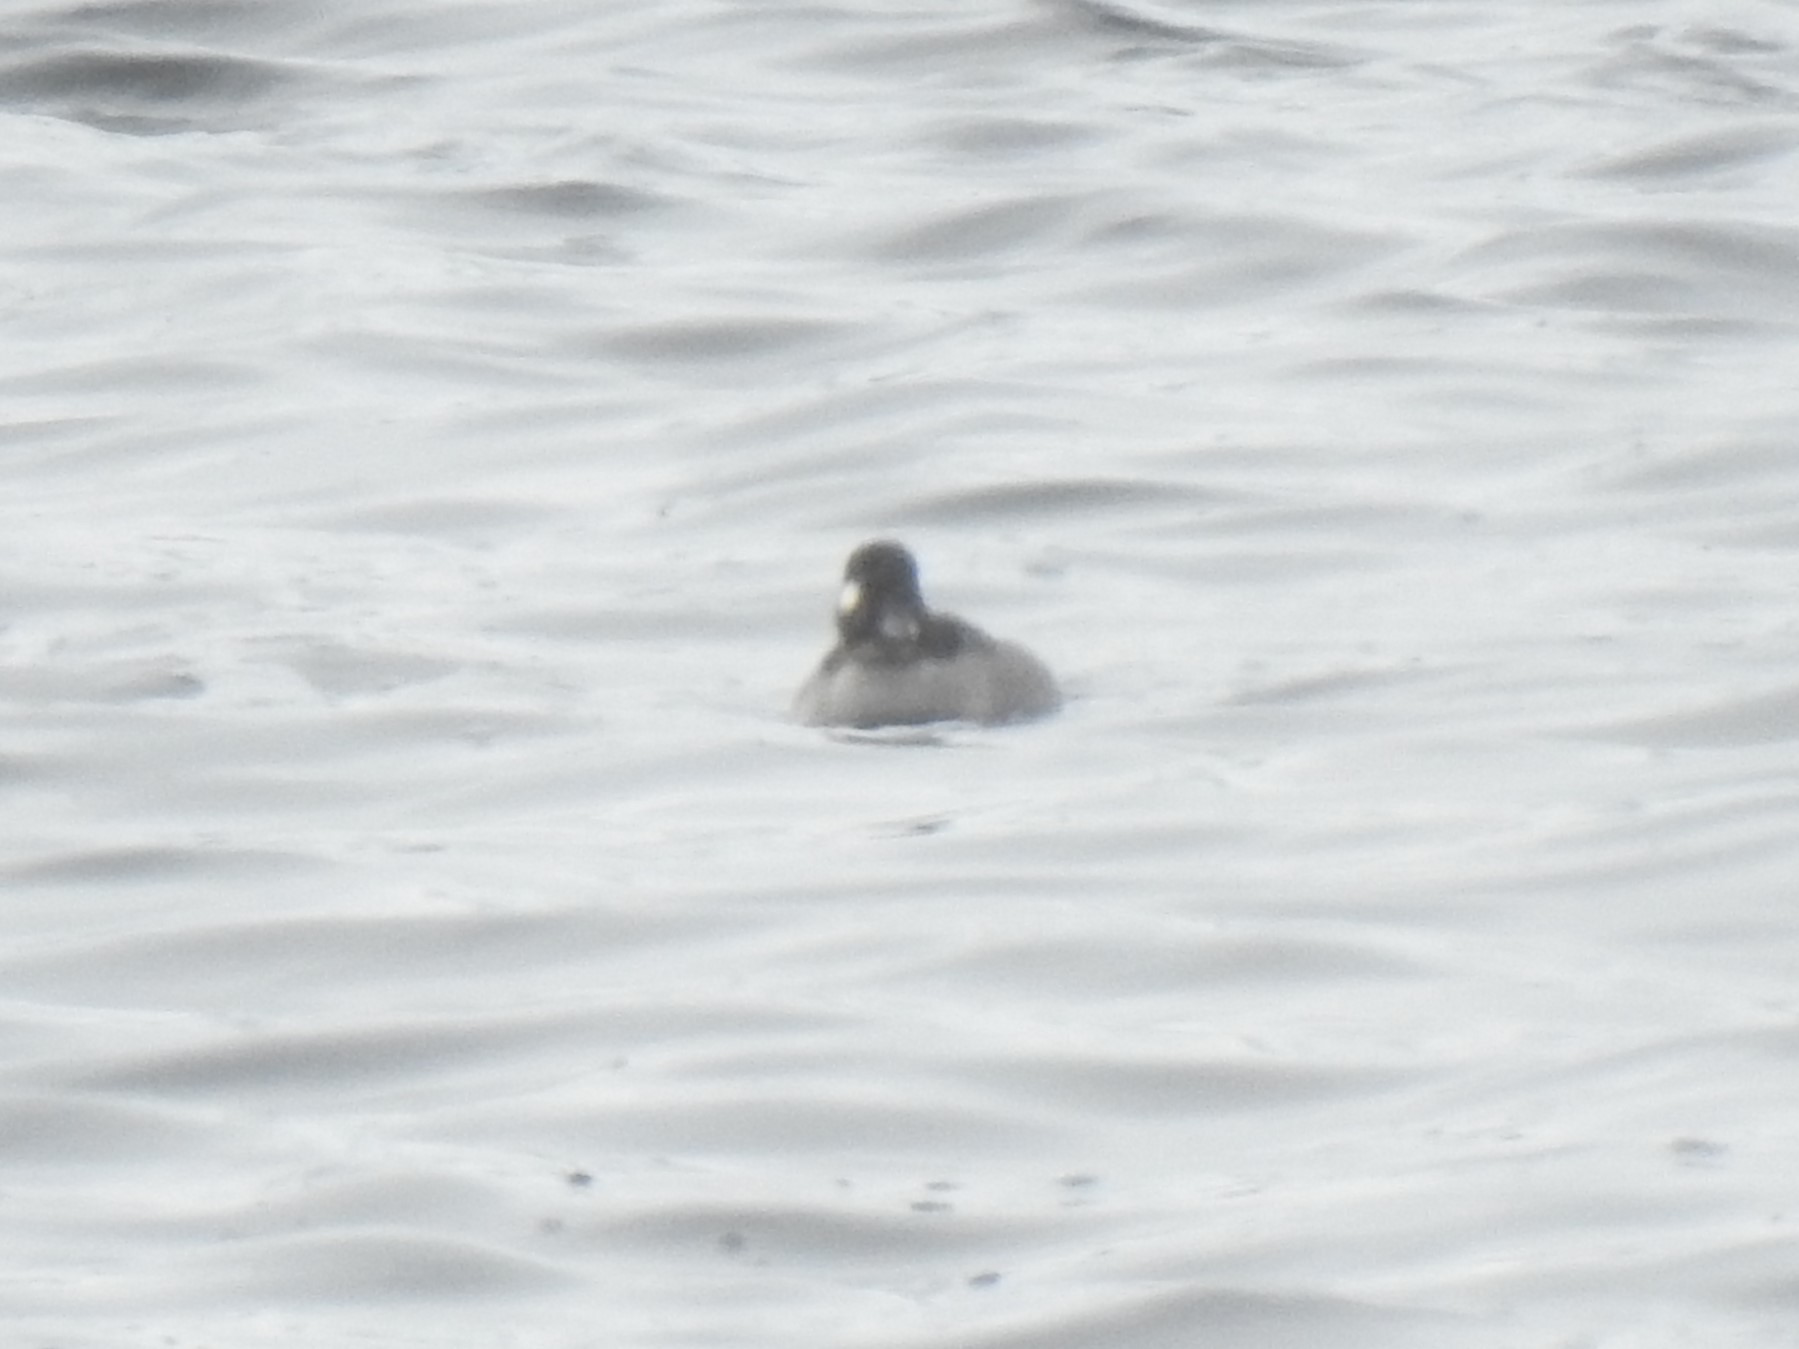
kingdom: Animalia
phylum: Chordata
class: Aves
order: Anseriformes
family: Anatidae
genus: Bucephala
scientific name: Bucephala albeola
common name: Bufflehead
